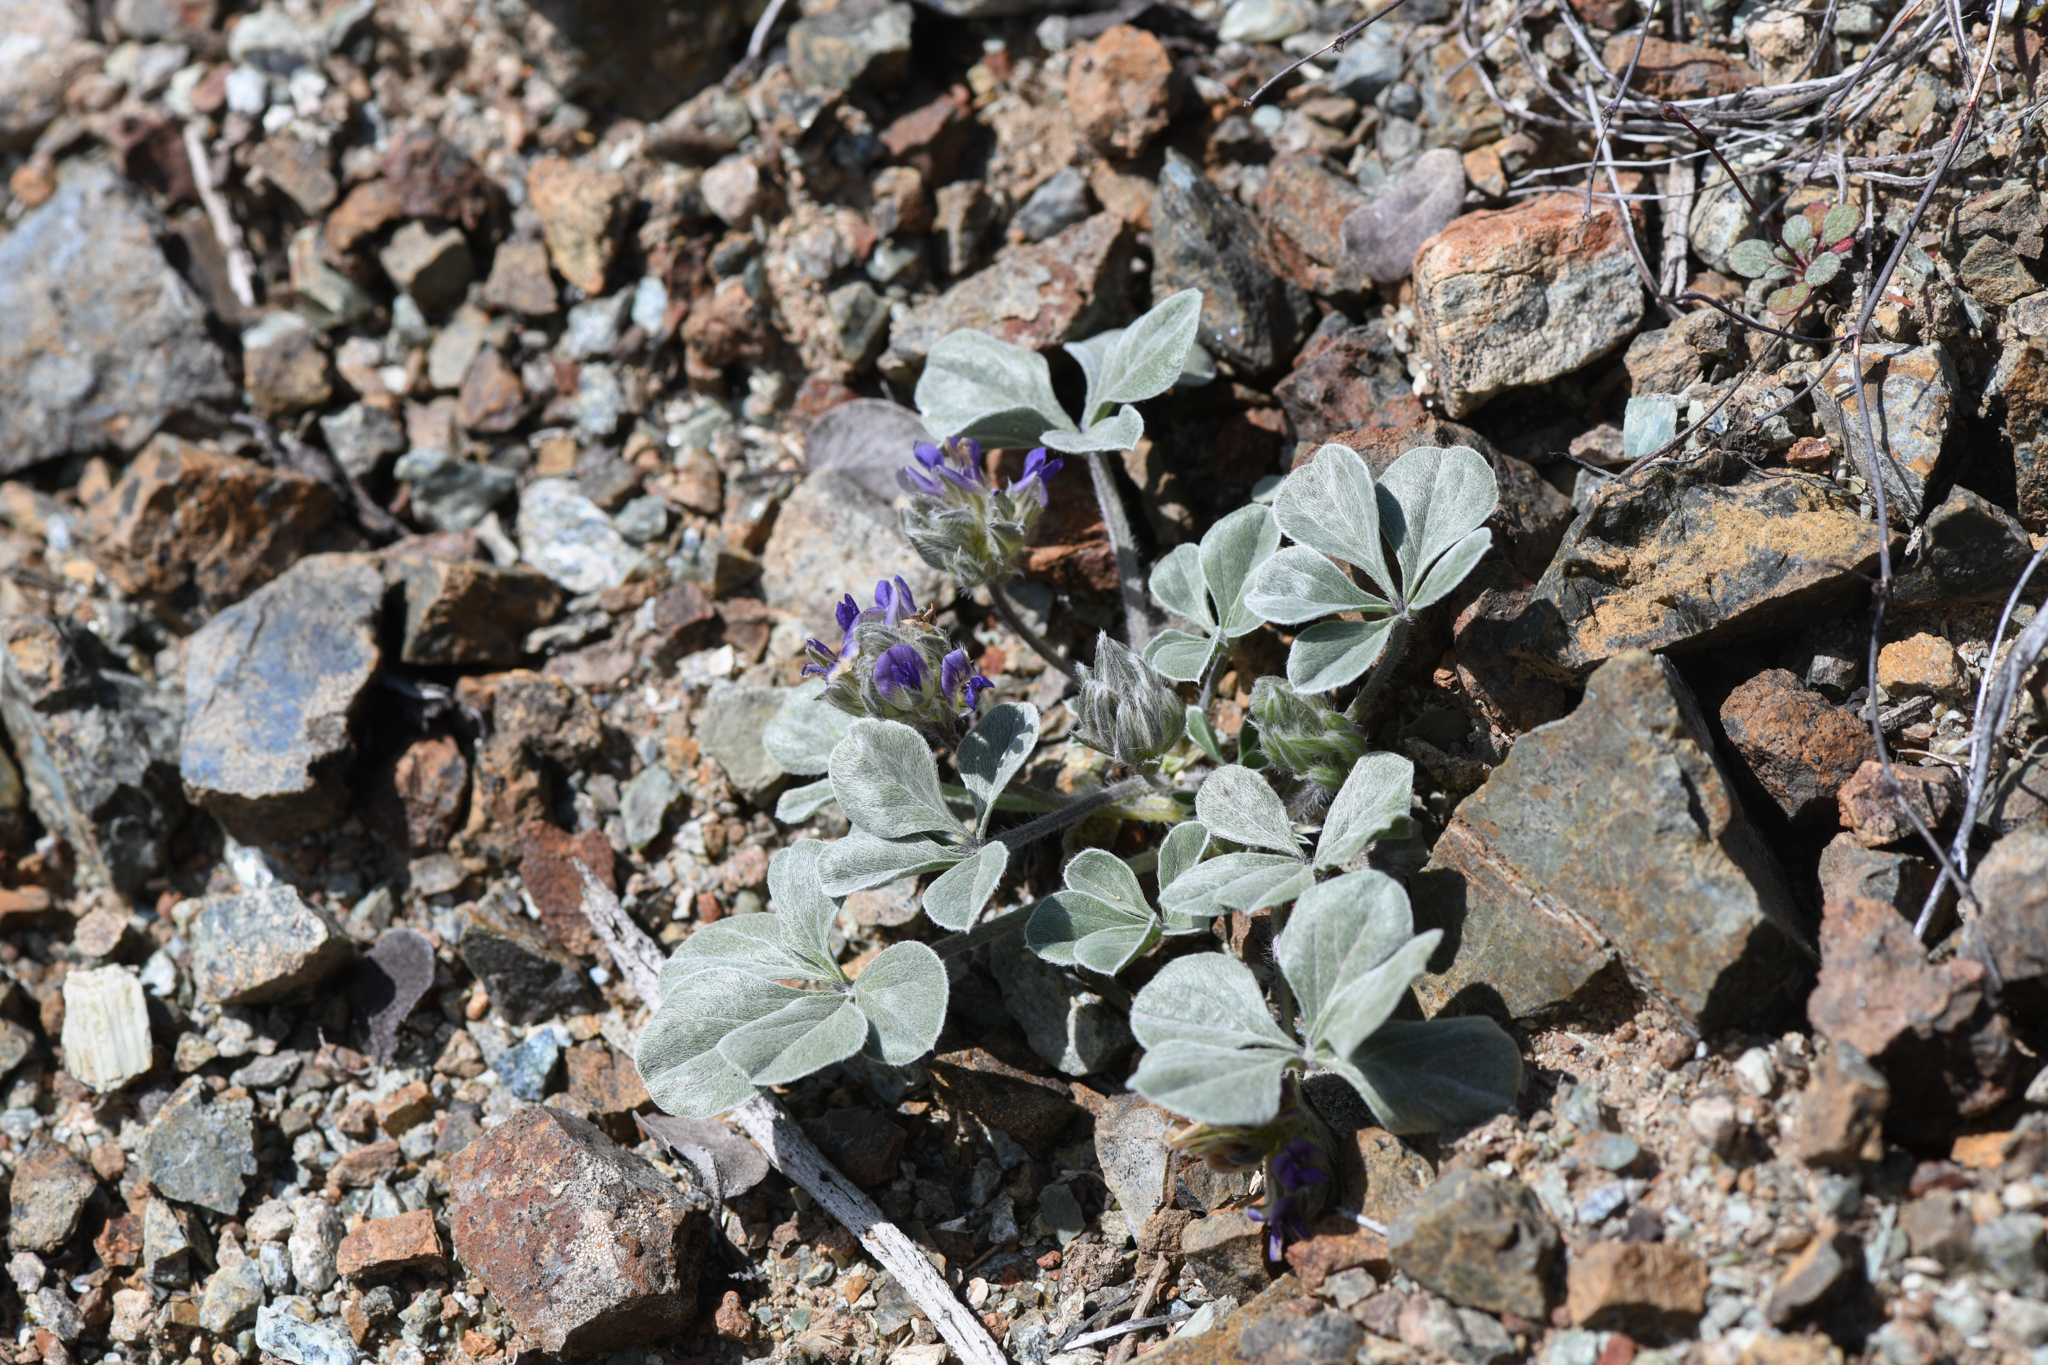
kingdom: Plantae
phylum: Tracheophyta
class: Magnoliopsida
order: Fabales
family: Fabaceae
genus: Pediomelum
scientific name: Pediomelum californicum
